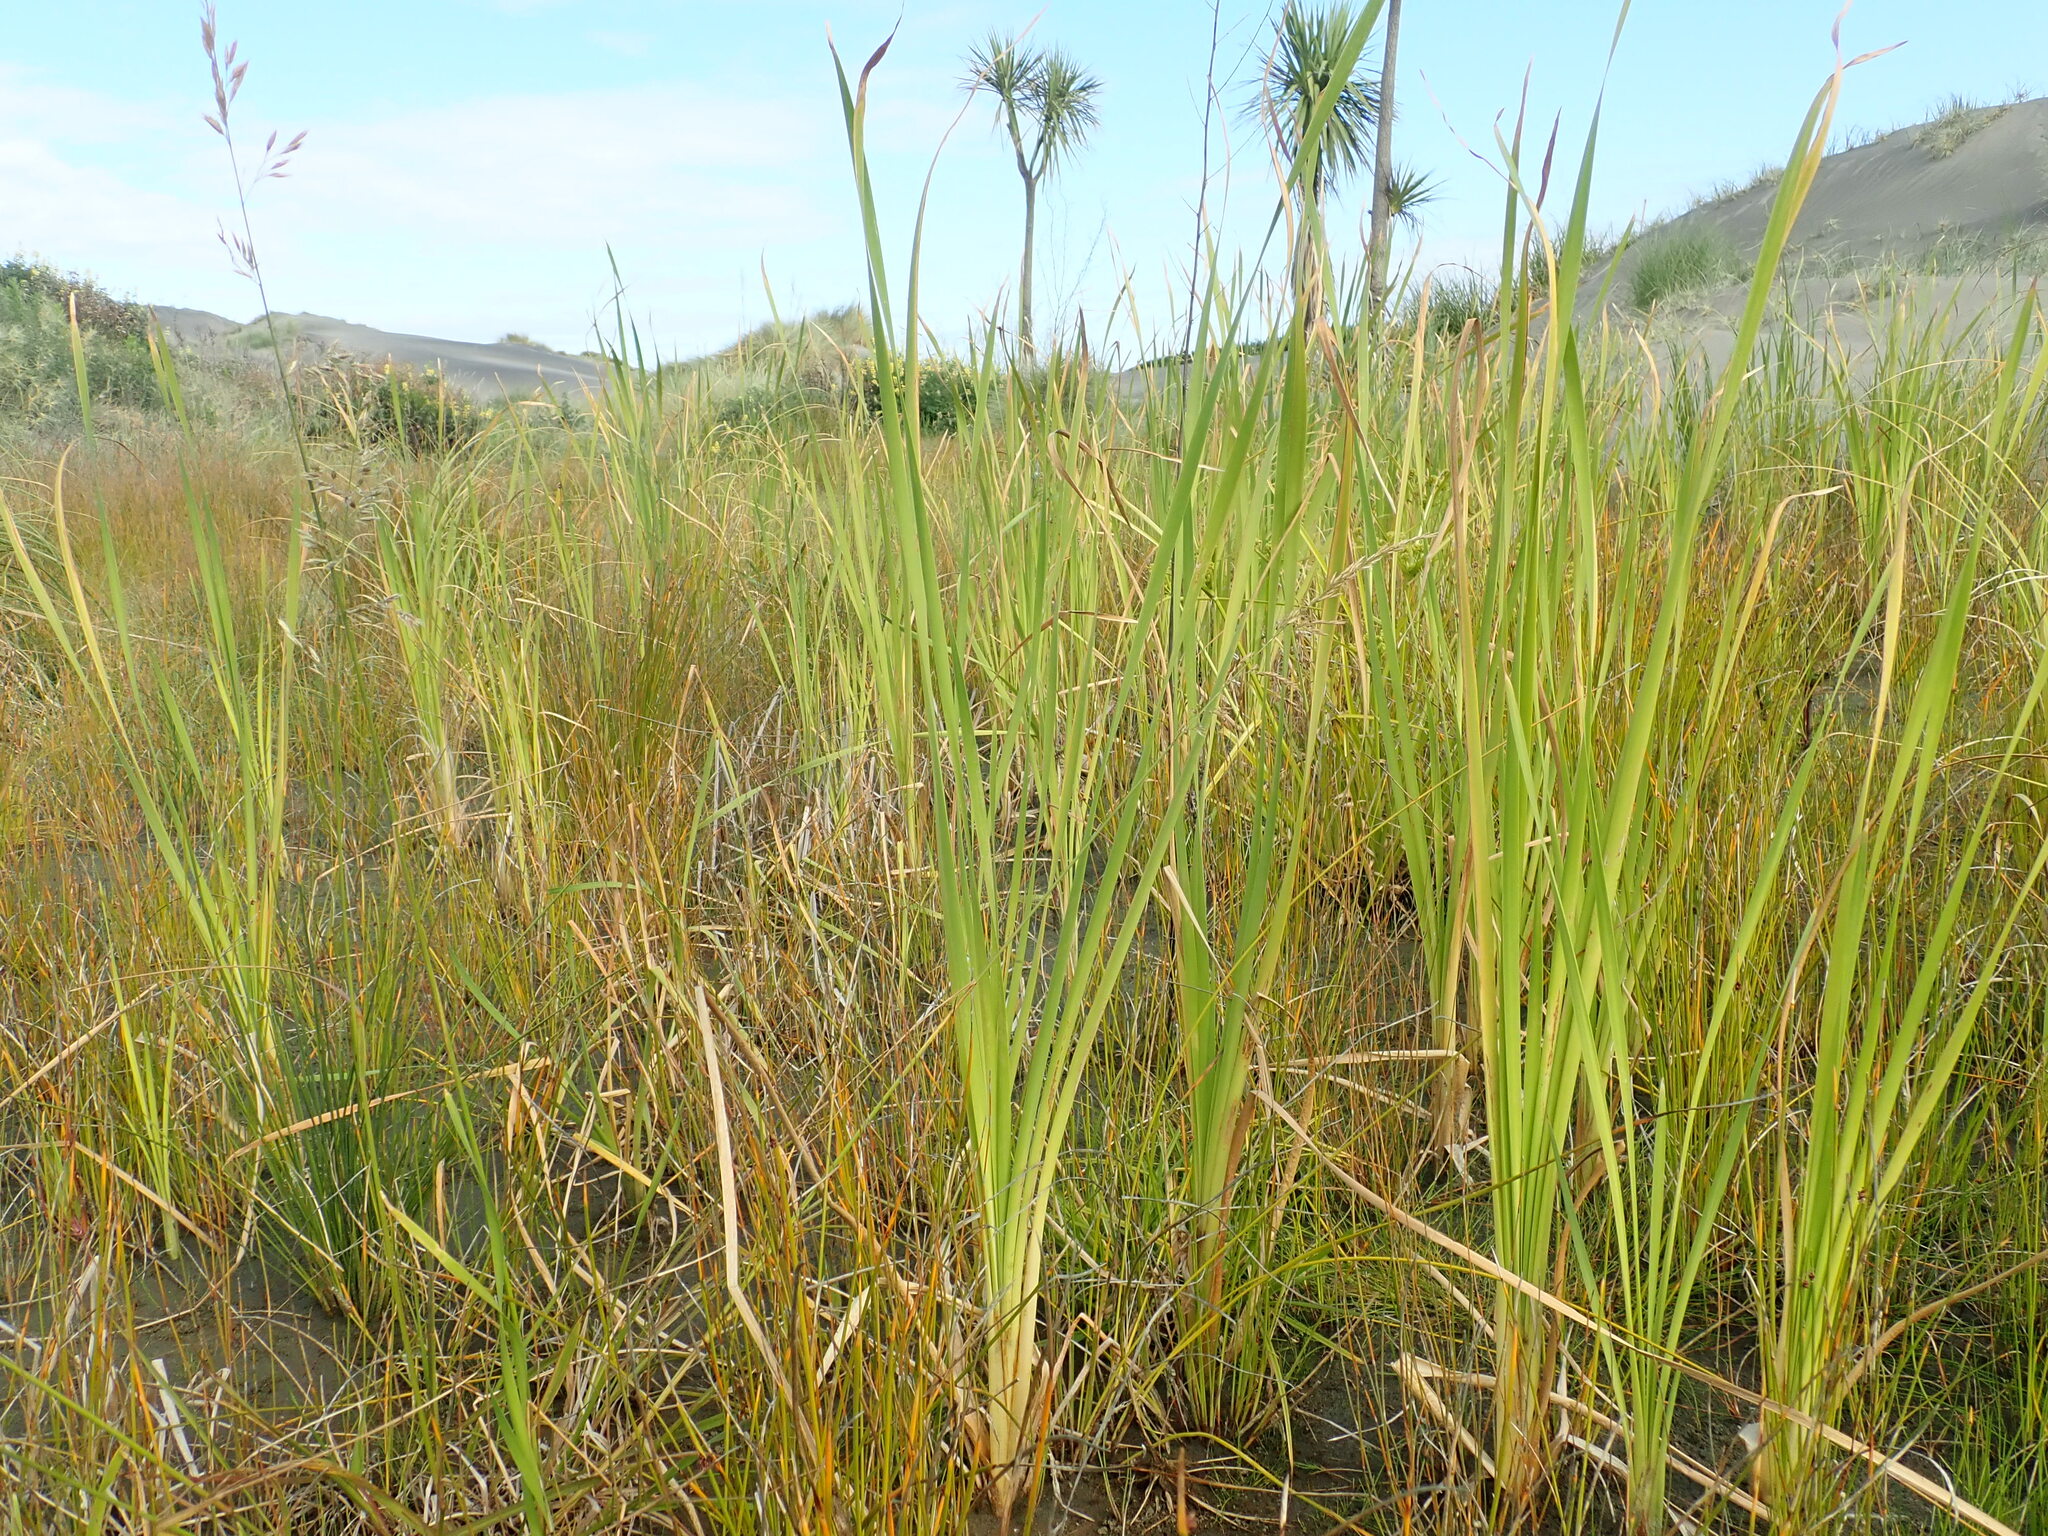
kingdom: Plantae
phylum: Tracheophyta
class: Liliopsida
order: Poales
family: Typhaceae
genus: Typha
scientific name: Typha orientalis
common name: Bullrush
